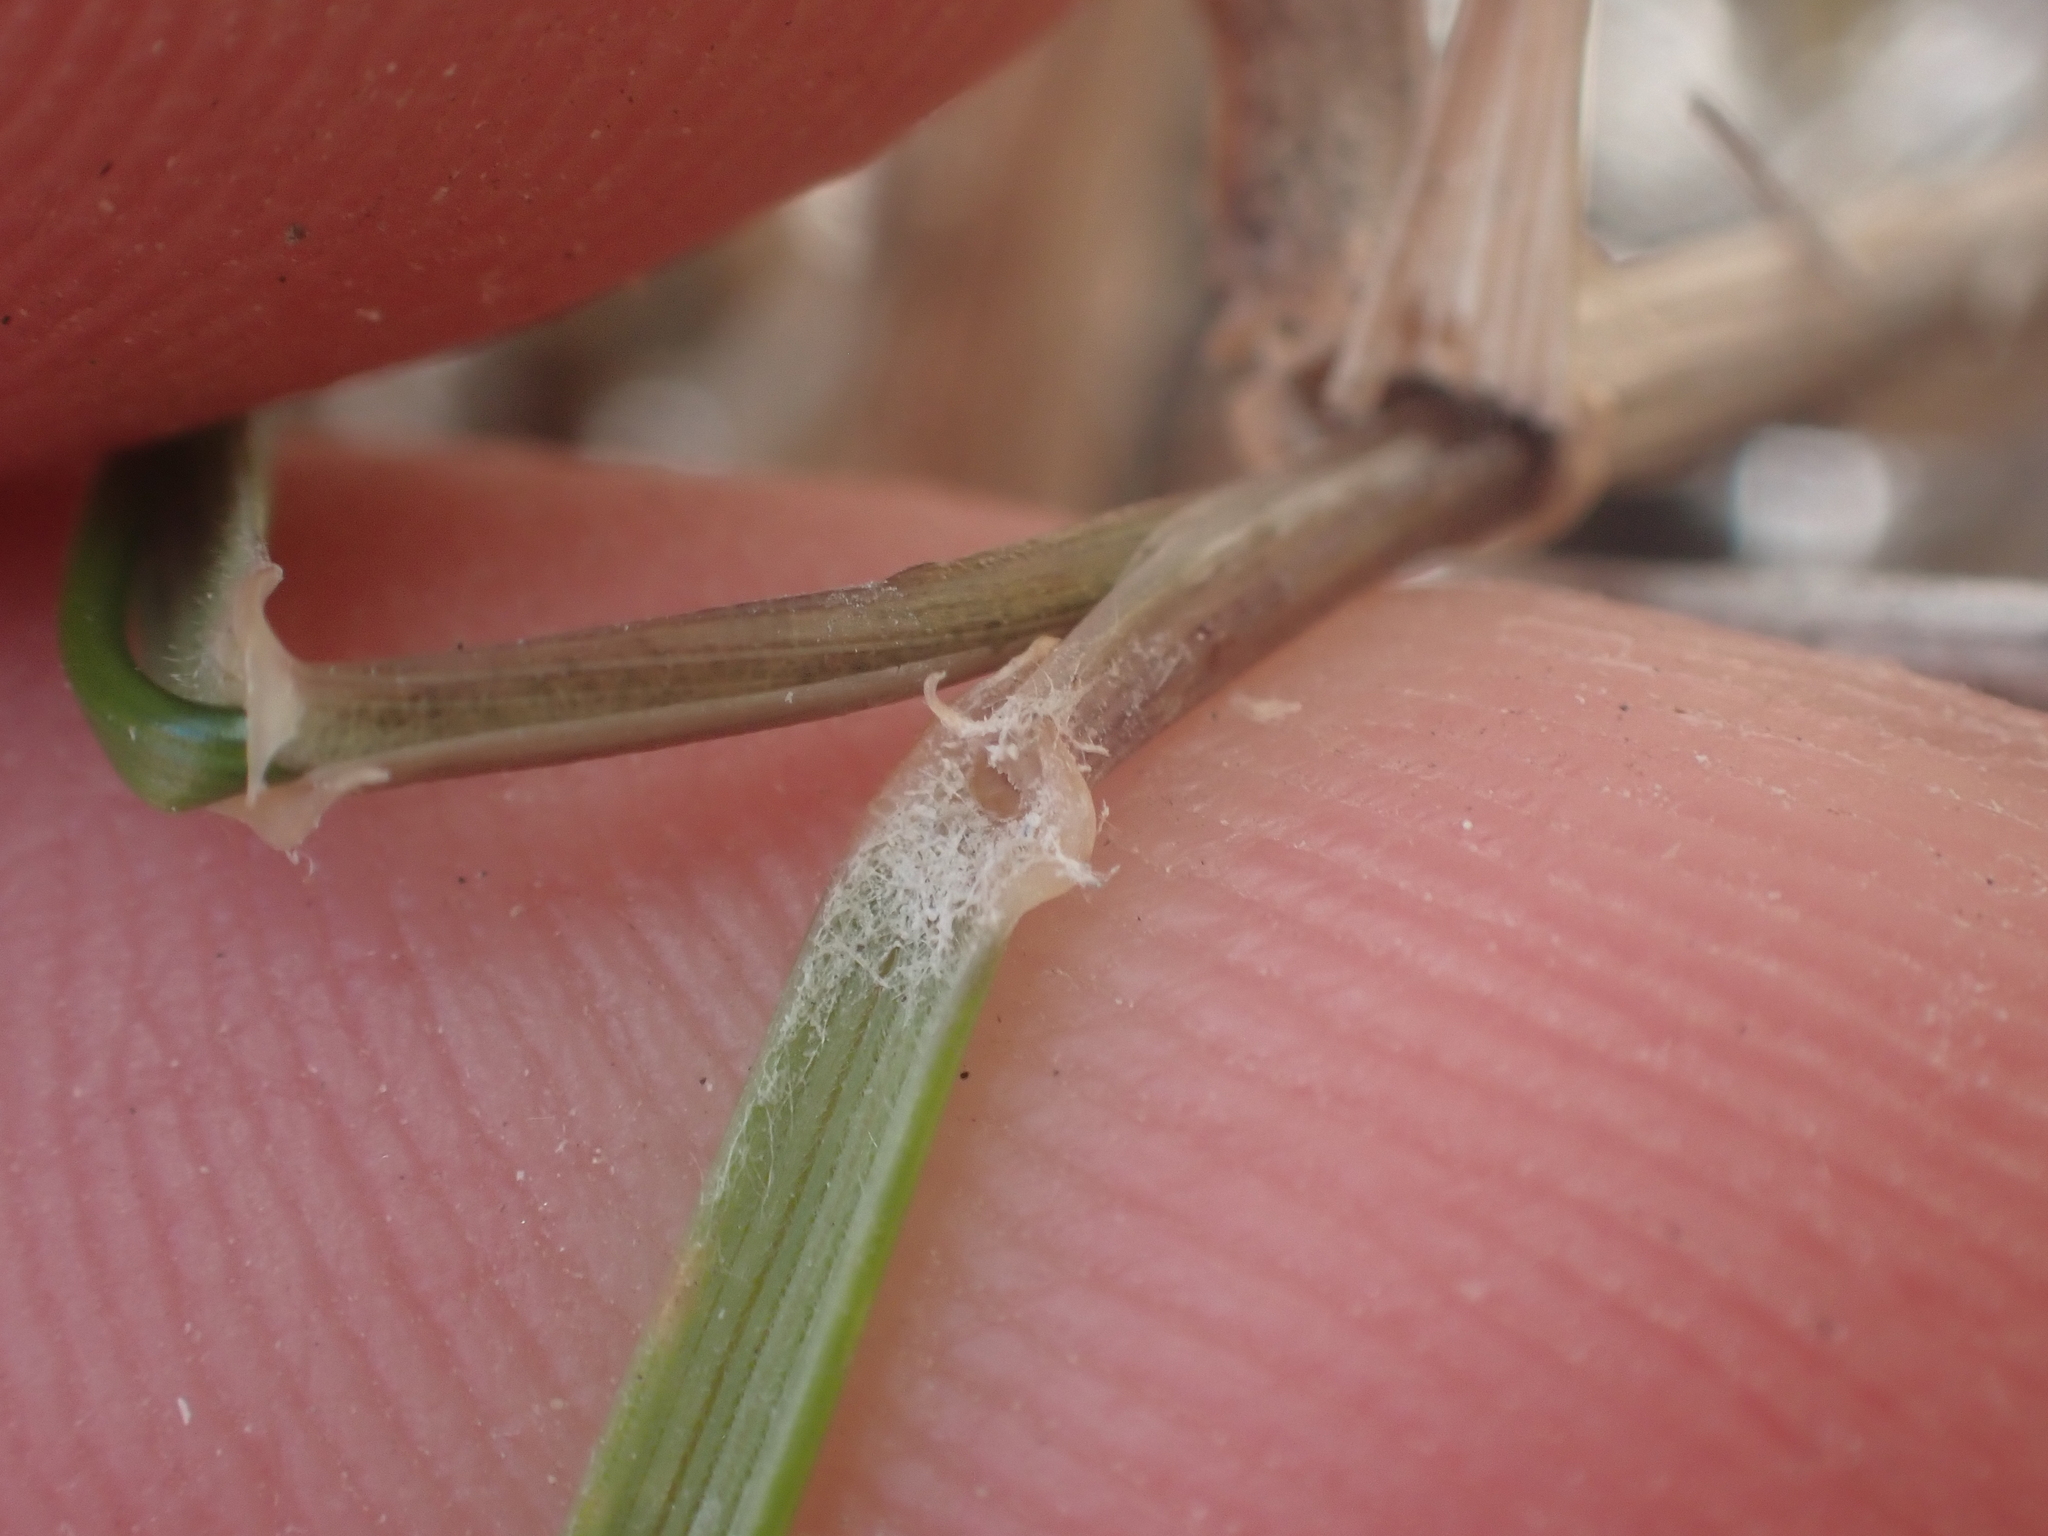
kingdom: Plantae
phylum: Tracheophyta
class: Liliopsida
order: Poales
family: Poaceae
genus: Anthosachne
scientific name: Anthosachne scabra
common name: Common wheatgrass
